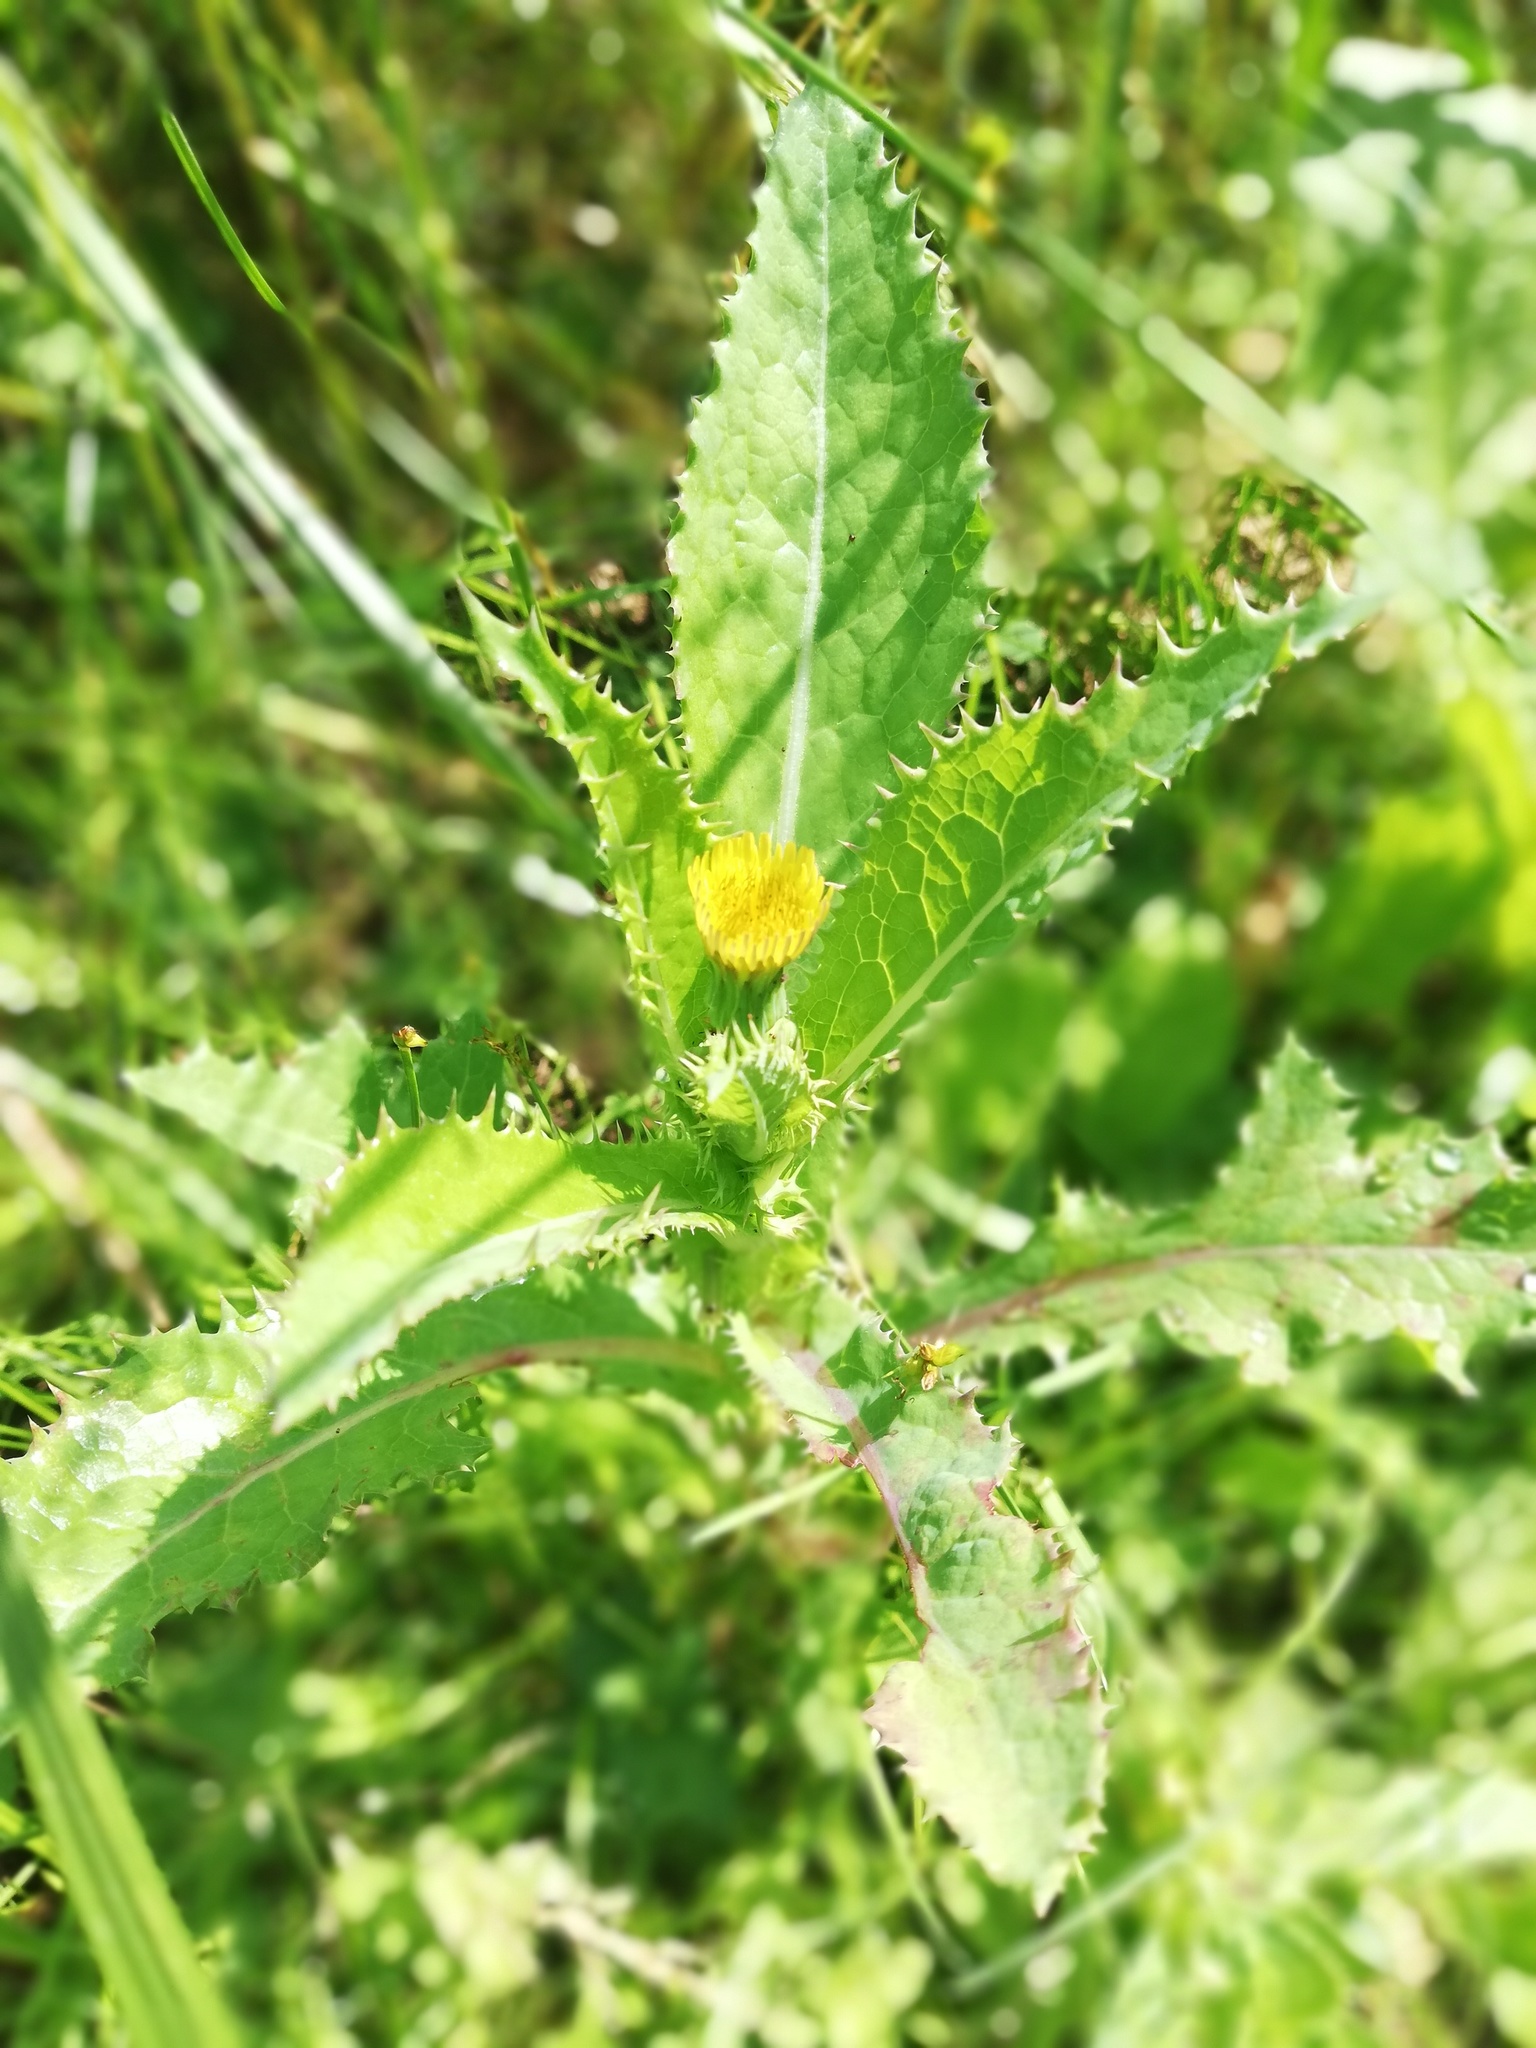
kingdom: Plantae
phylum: Tracheophyta
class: Magnoliopsida
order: Asterales
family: Asteraceae
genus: Sonchus
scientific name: Sonchus asper
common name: Prickly sow-thistle
